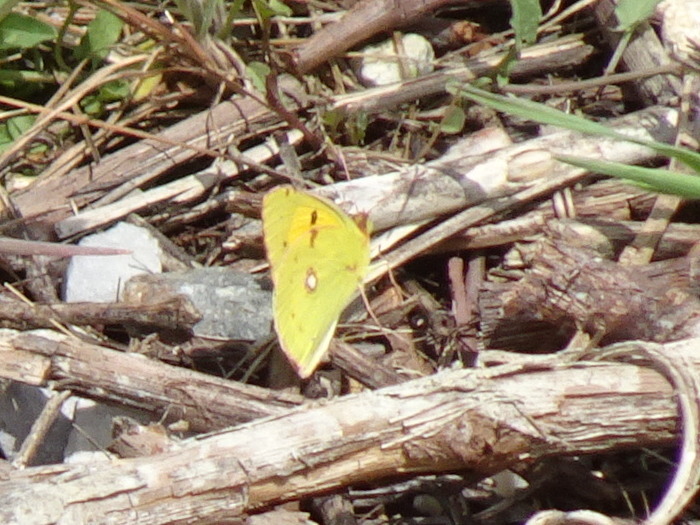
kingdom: Animalia
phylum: Arthropoda
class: Insecta
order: Lepidoptera
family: Pieridae
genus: Colias
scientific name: Colias croceus
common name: Clouded yellow
